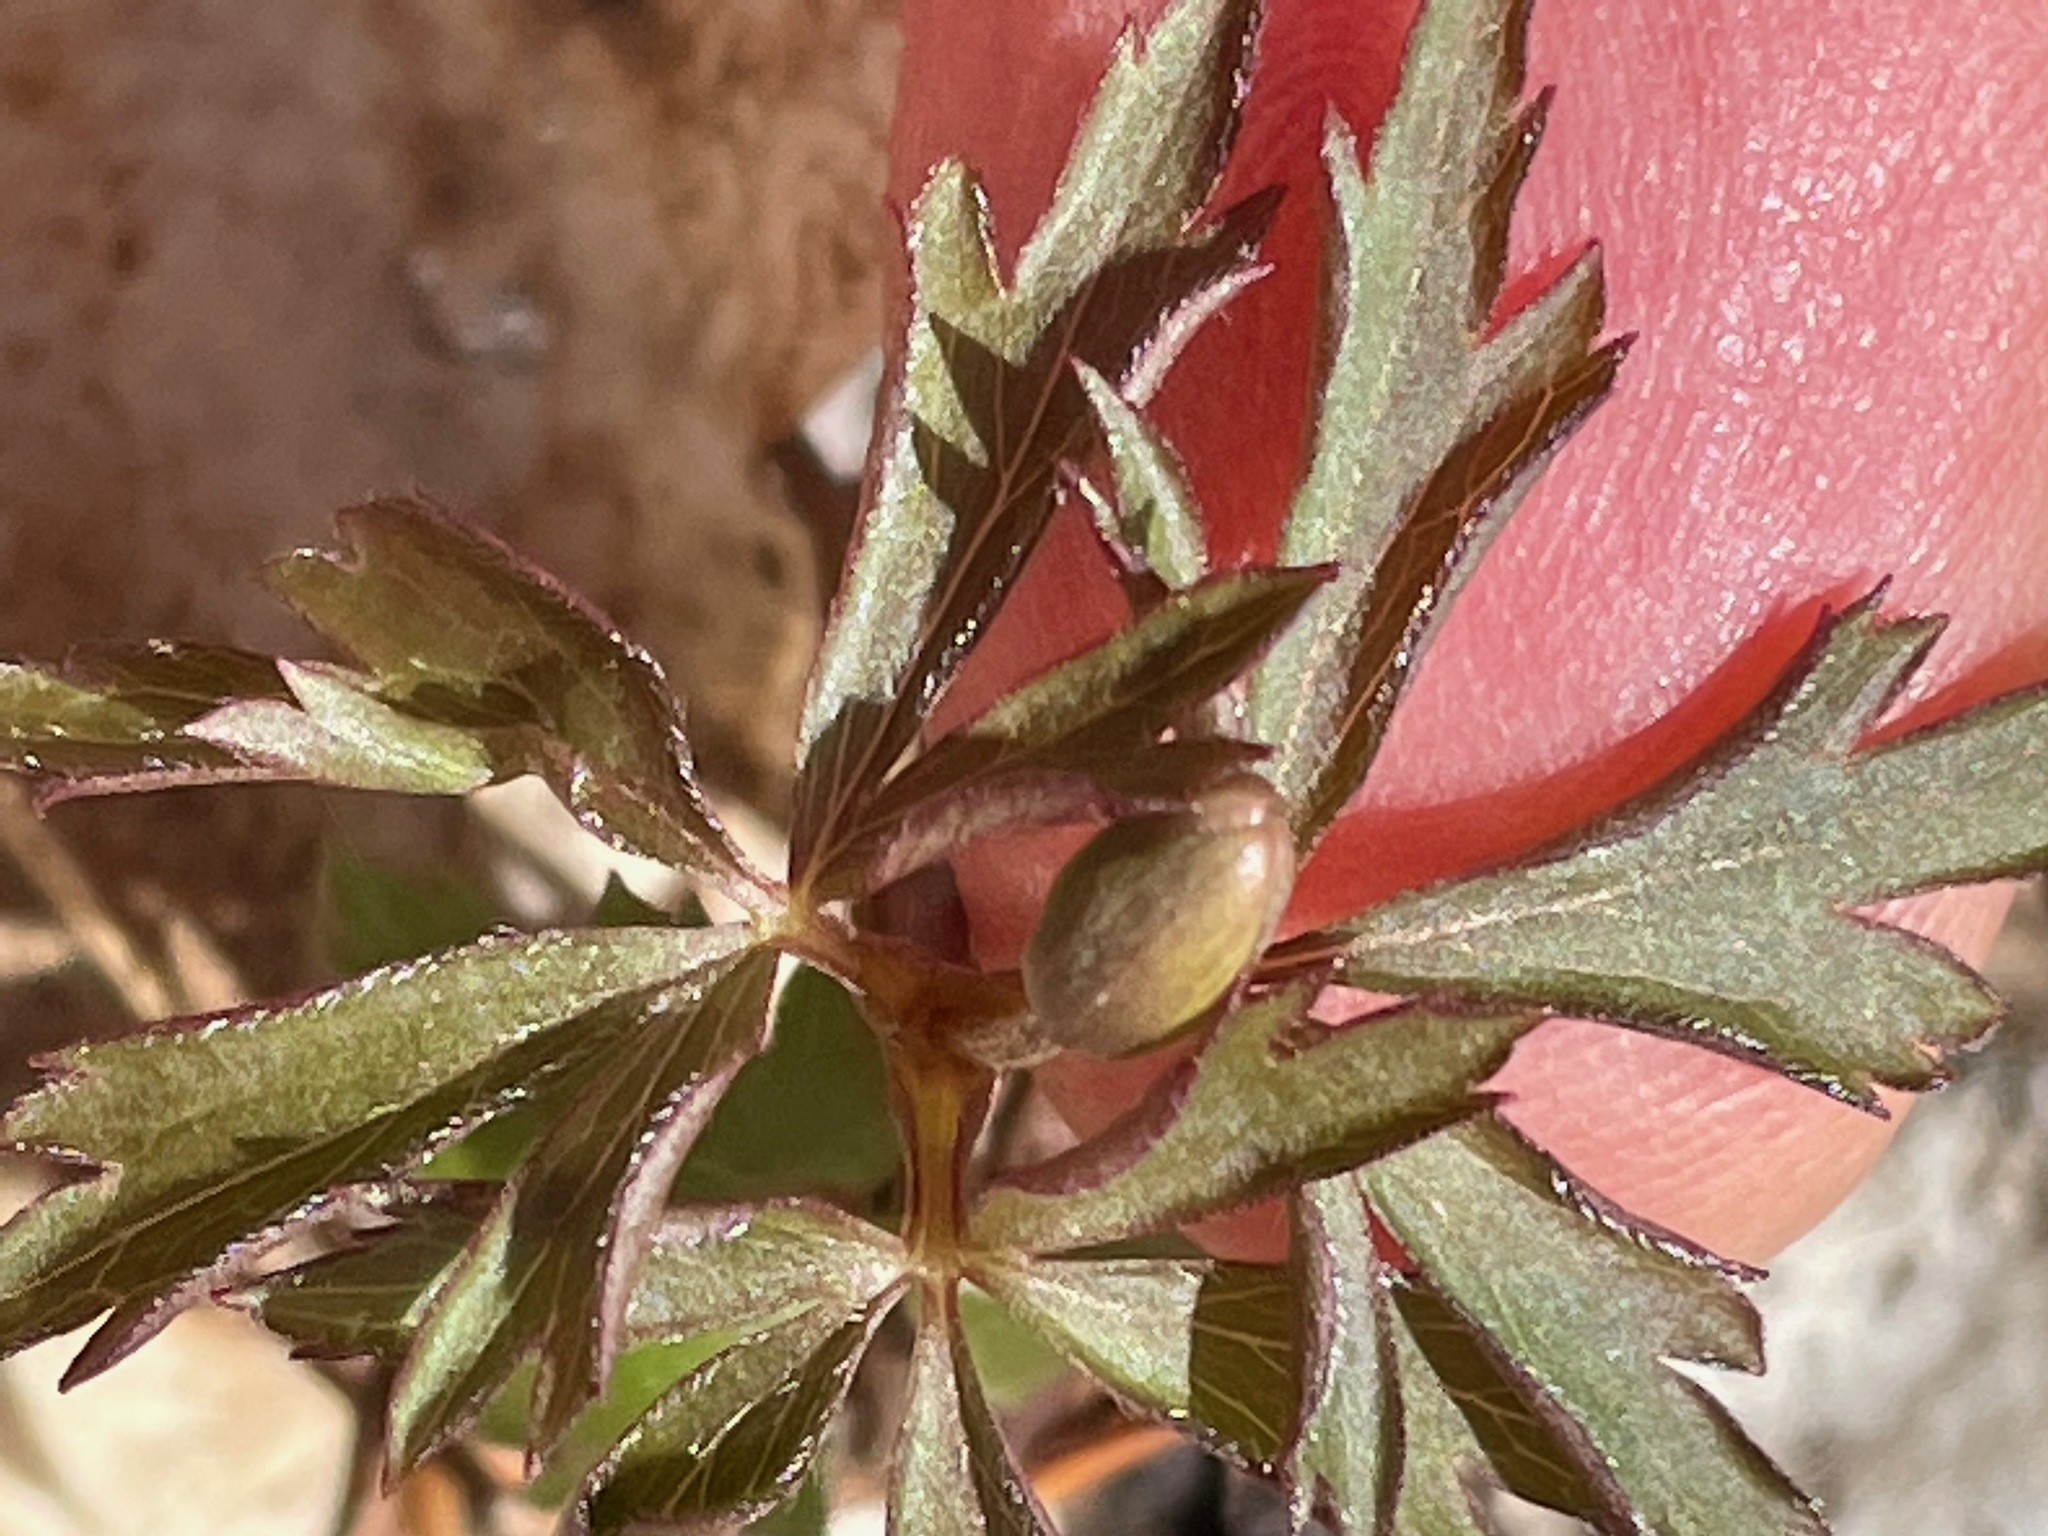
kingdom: Plantae
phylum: Tracheophyta
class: Magnoliopsida
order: Ranunculales
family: Ranunculaceae
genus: Anemone
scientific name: Anemone quinquefolia
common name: Wood anemone
